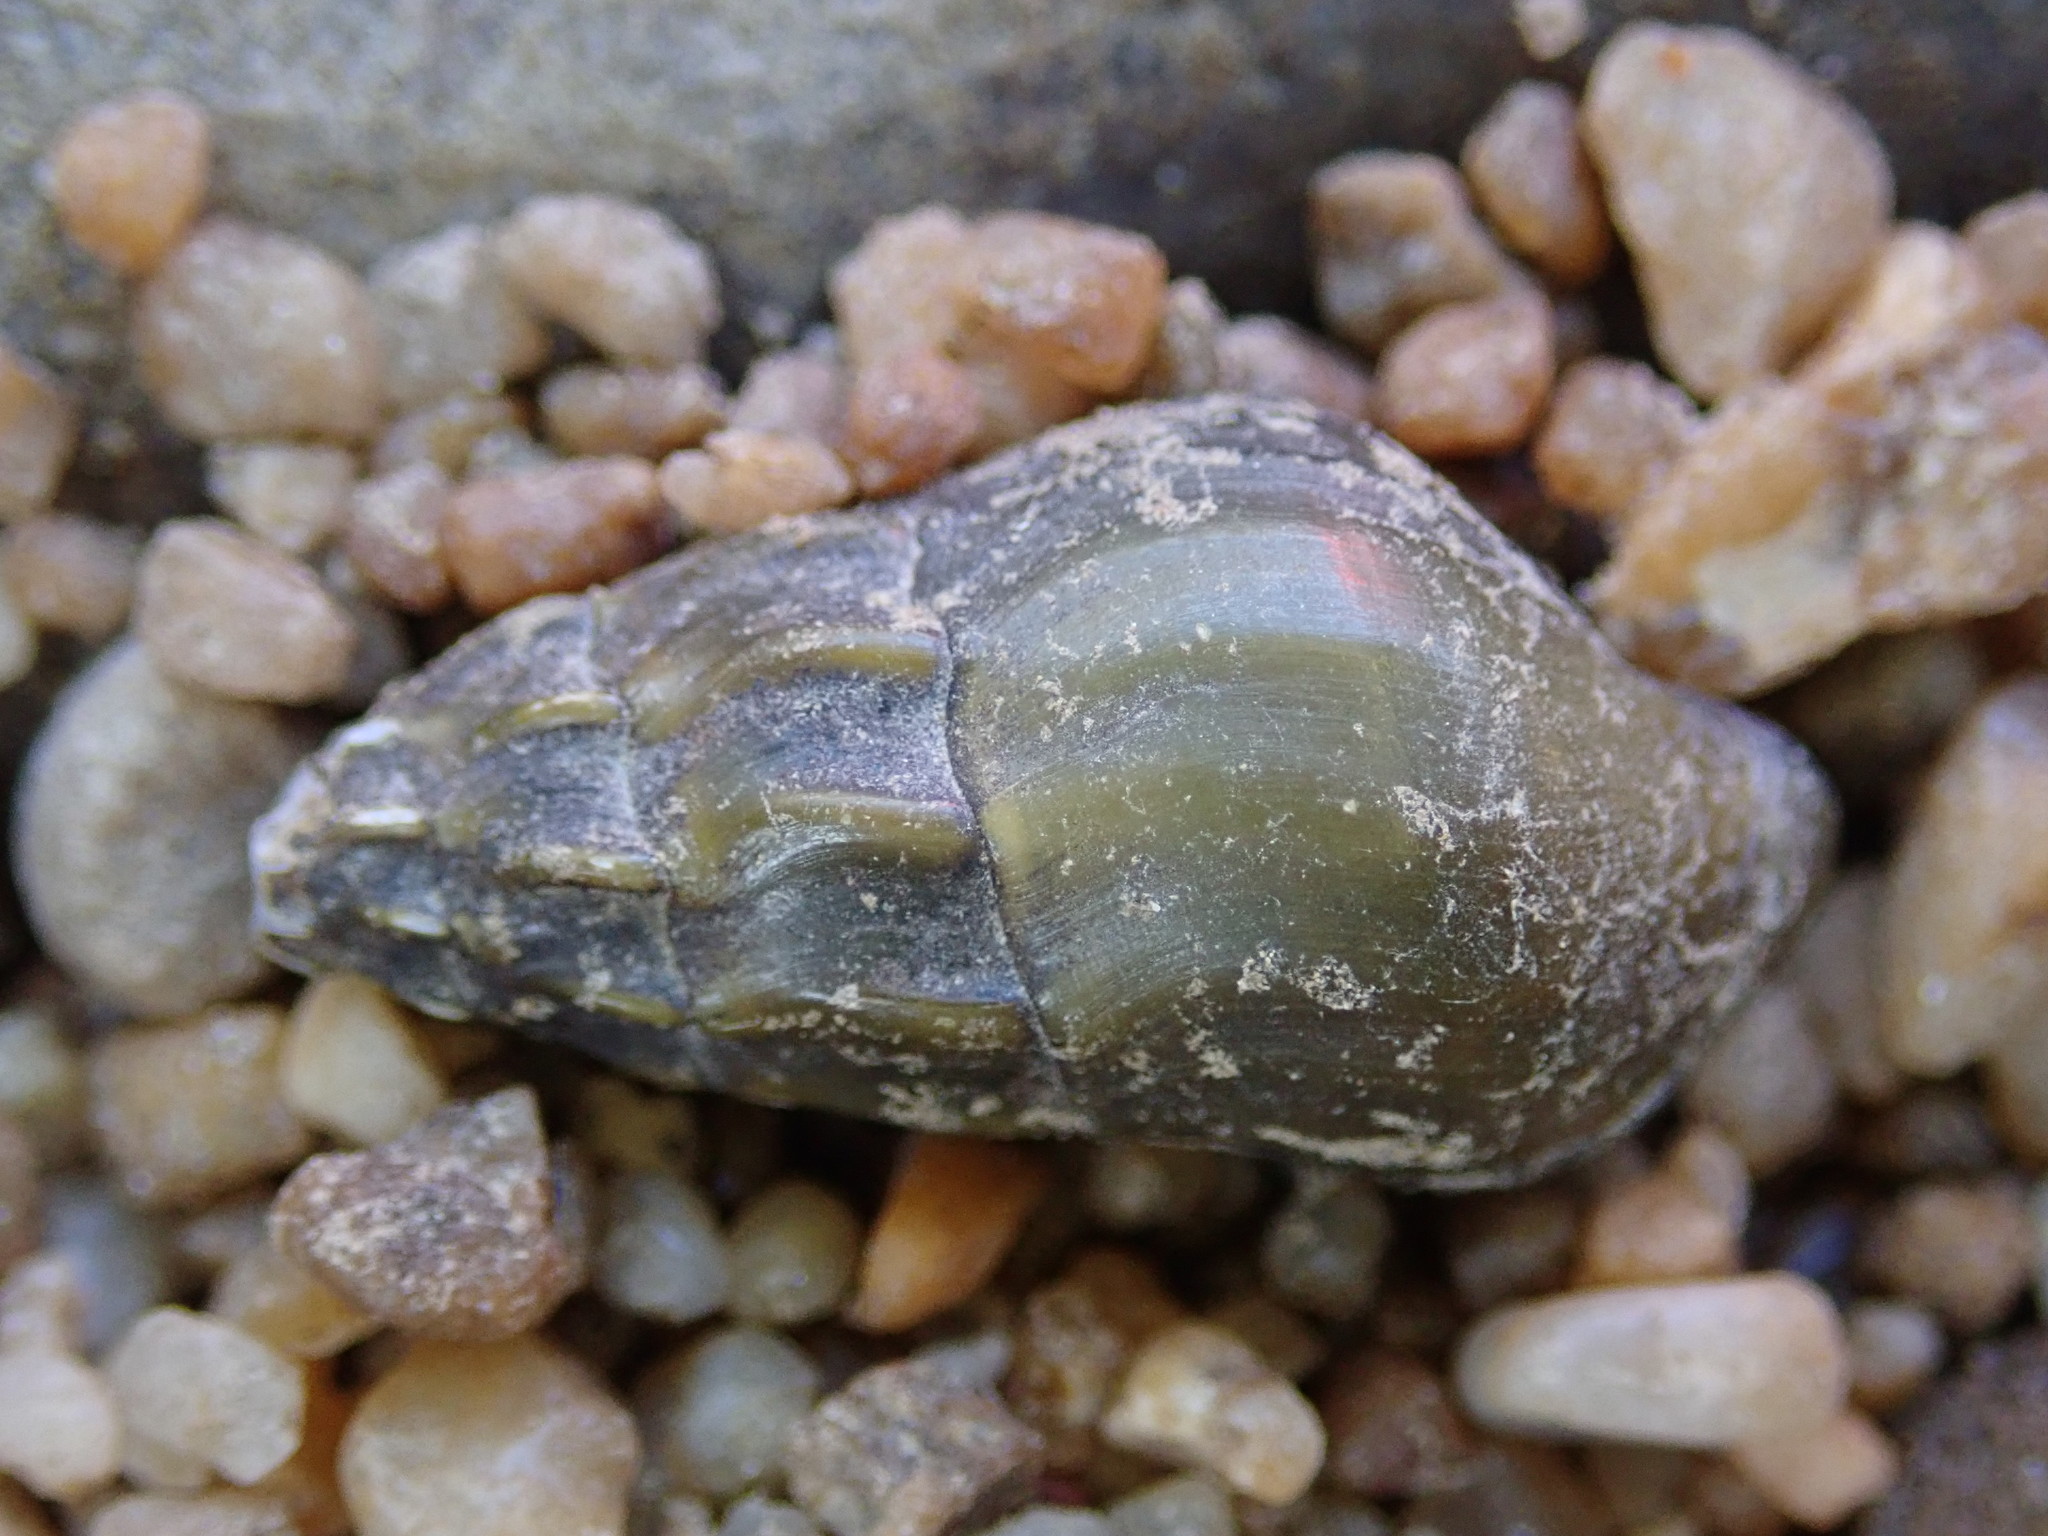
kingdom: Animalia
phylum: Mollusca
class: Gastropoda
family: Pleuroceridae
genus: Elimia
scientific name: Elimia laqueata
